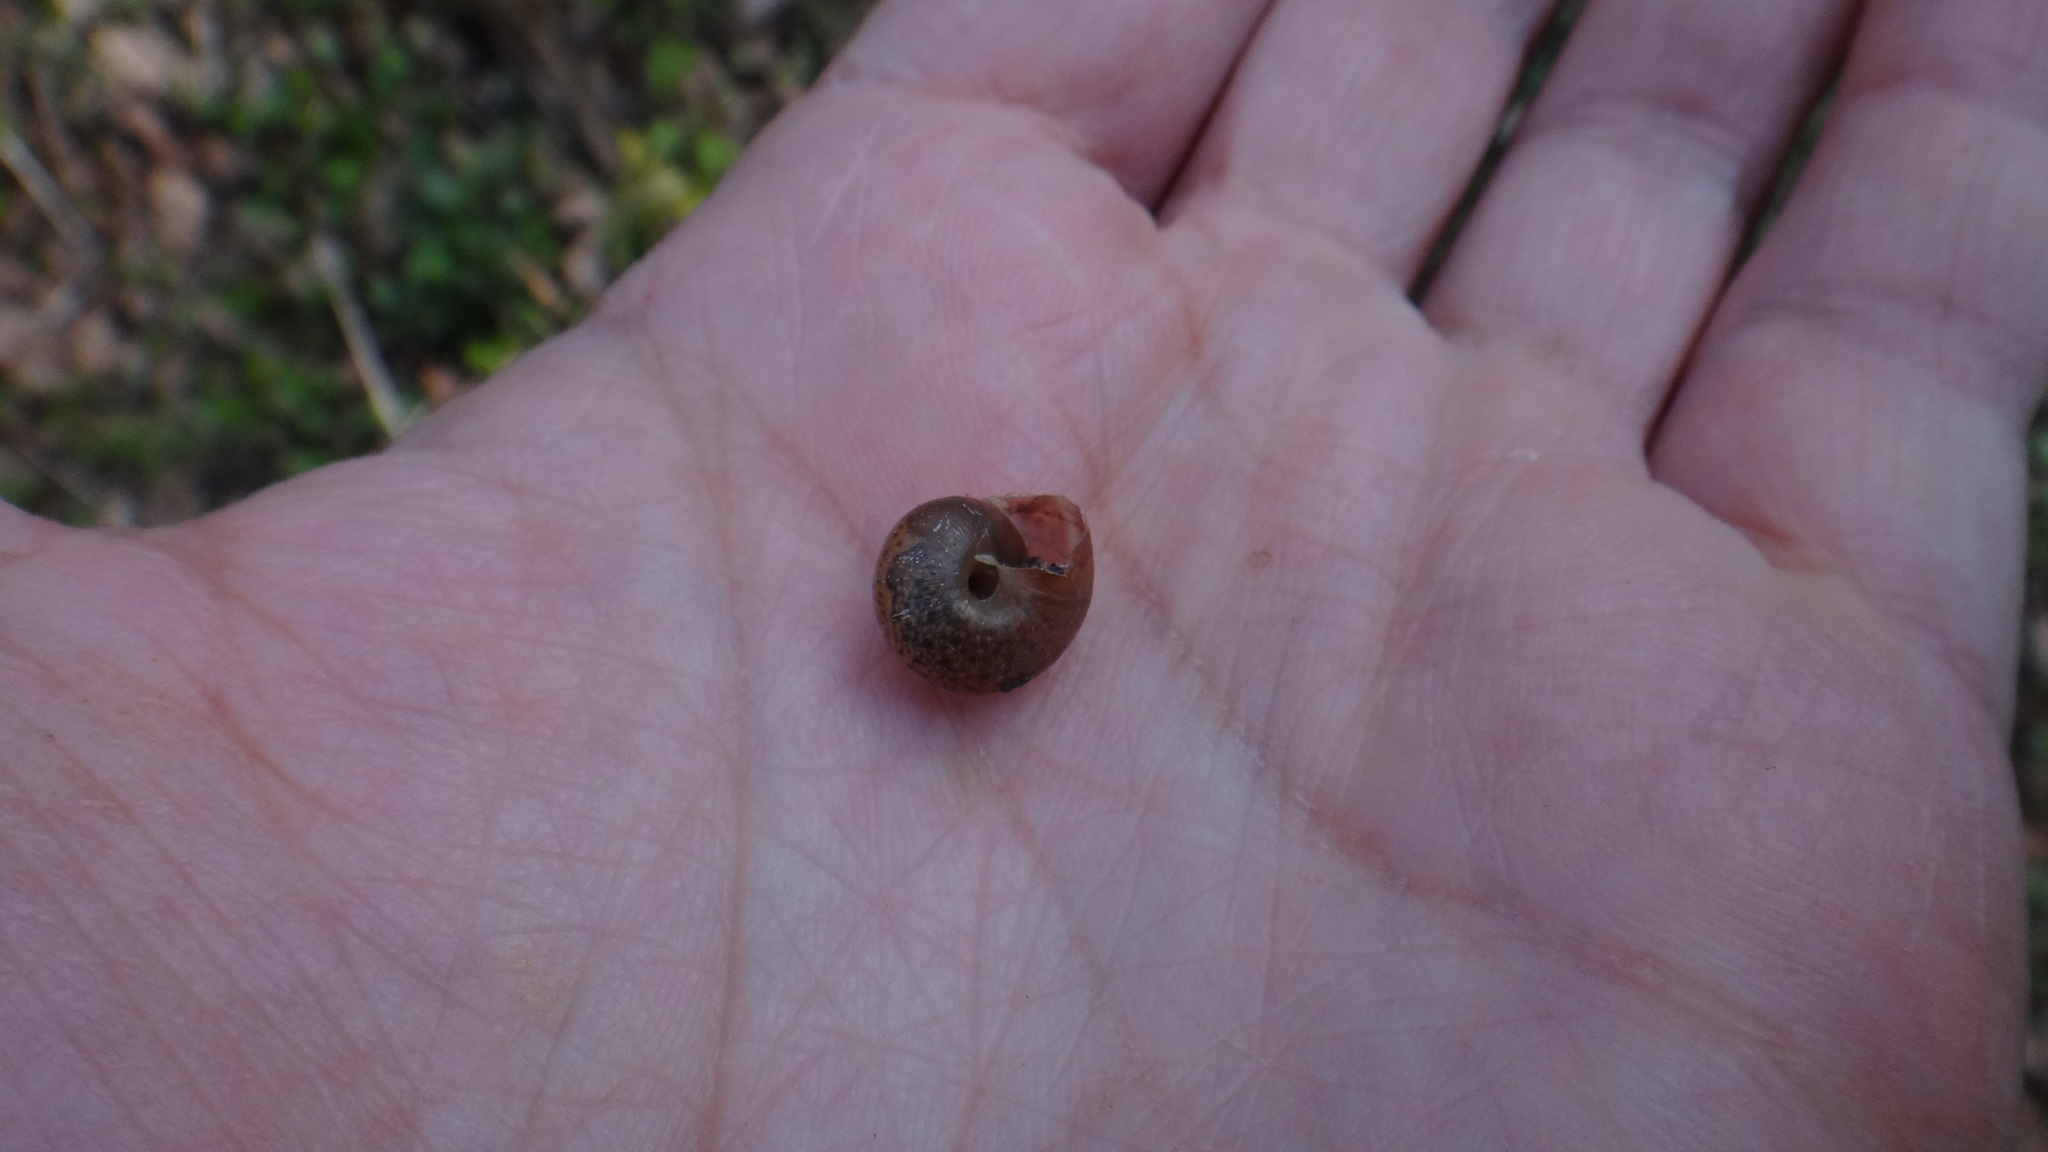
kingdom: Animalia
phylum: Mollusca
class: Gastropoda
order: Stylommatophora
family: Hygromiidae
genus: Euomphalia
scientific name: Euomphalia strigella
